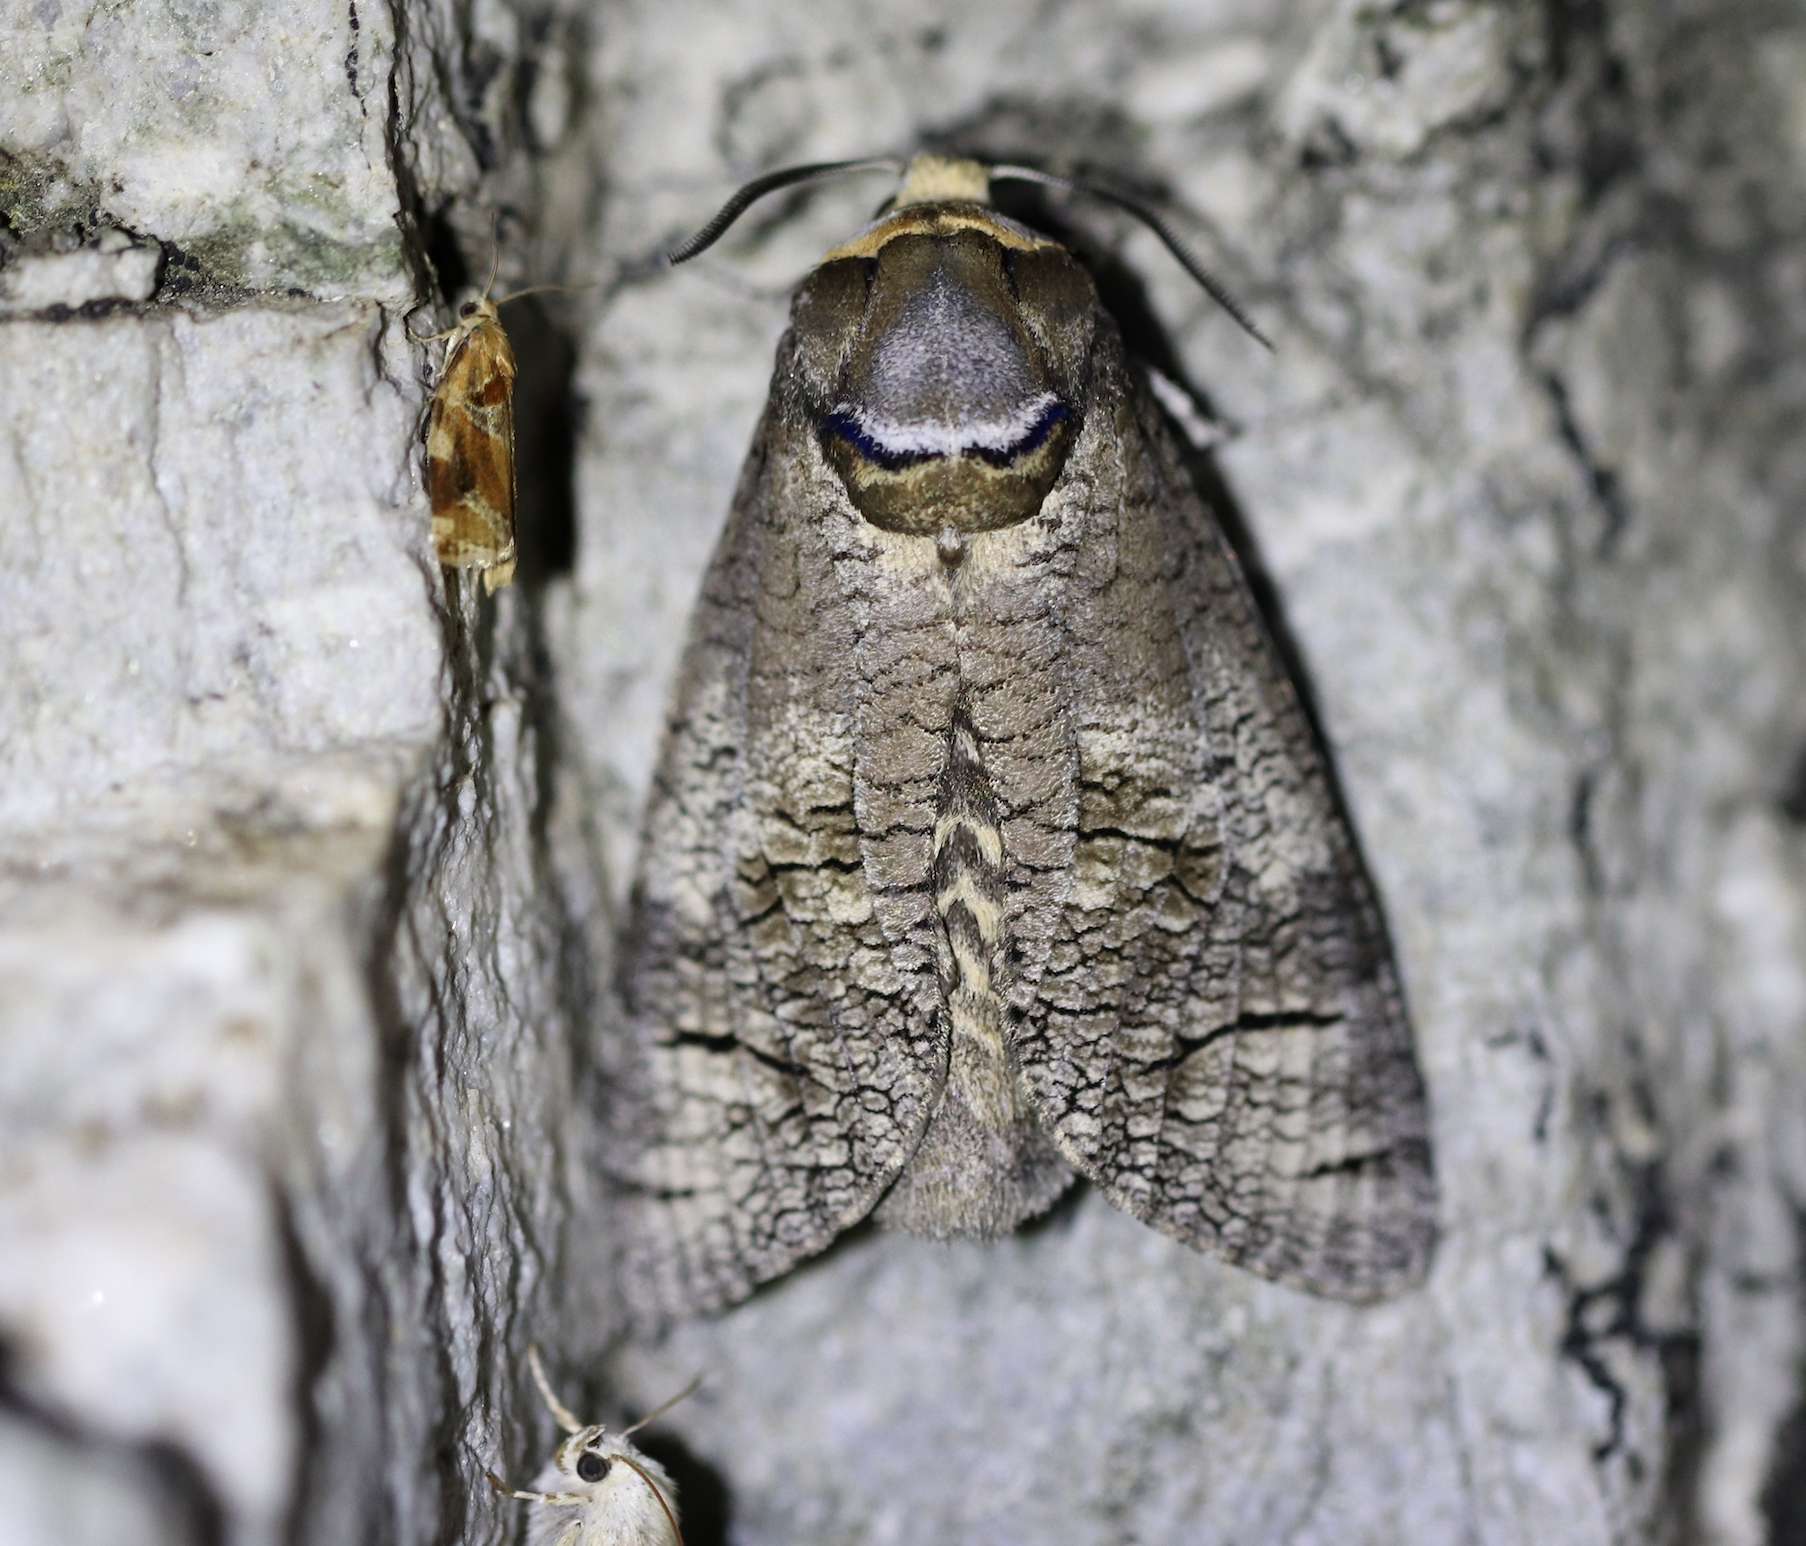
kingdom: Animalia
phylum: Arthropoda
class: Insecta
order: Lepidoptera
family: Cossidae
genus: Cossus
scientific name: Cossus cossus
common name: Goat moth
